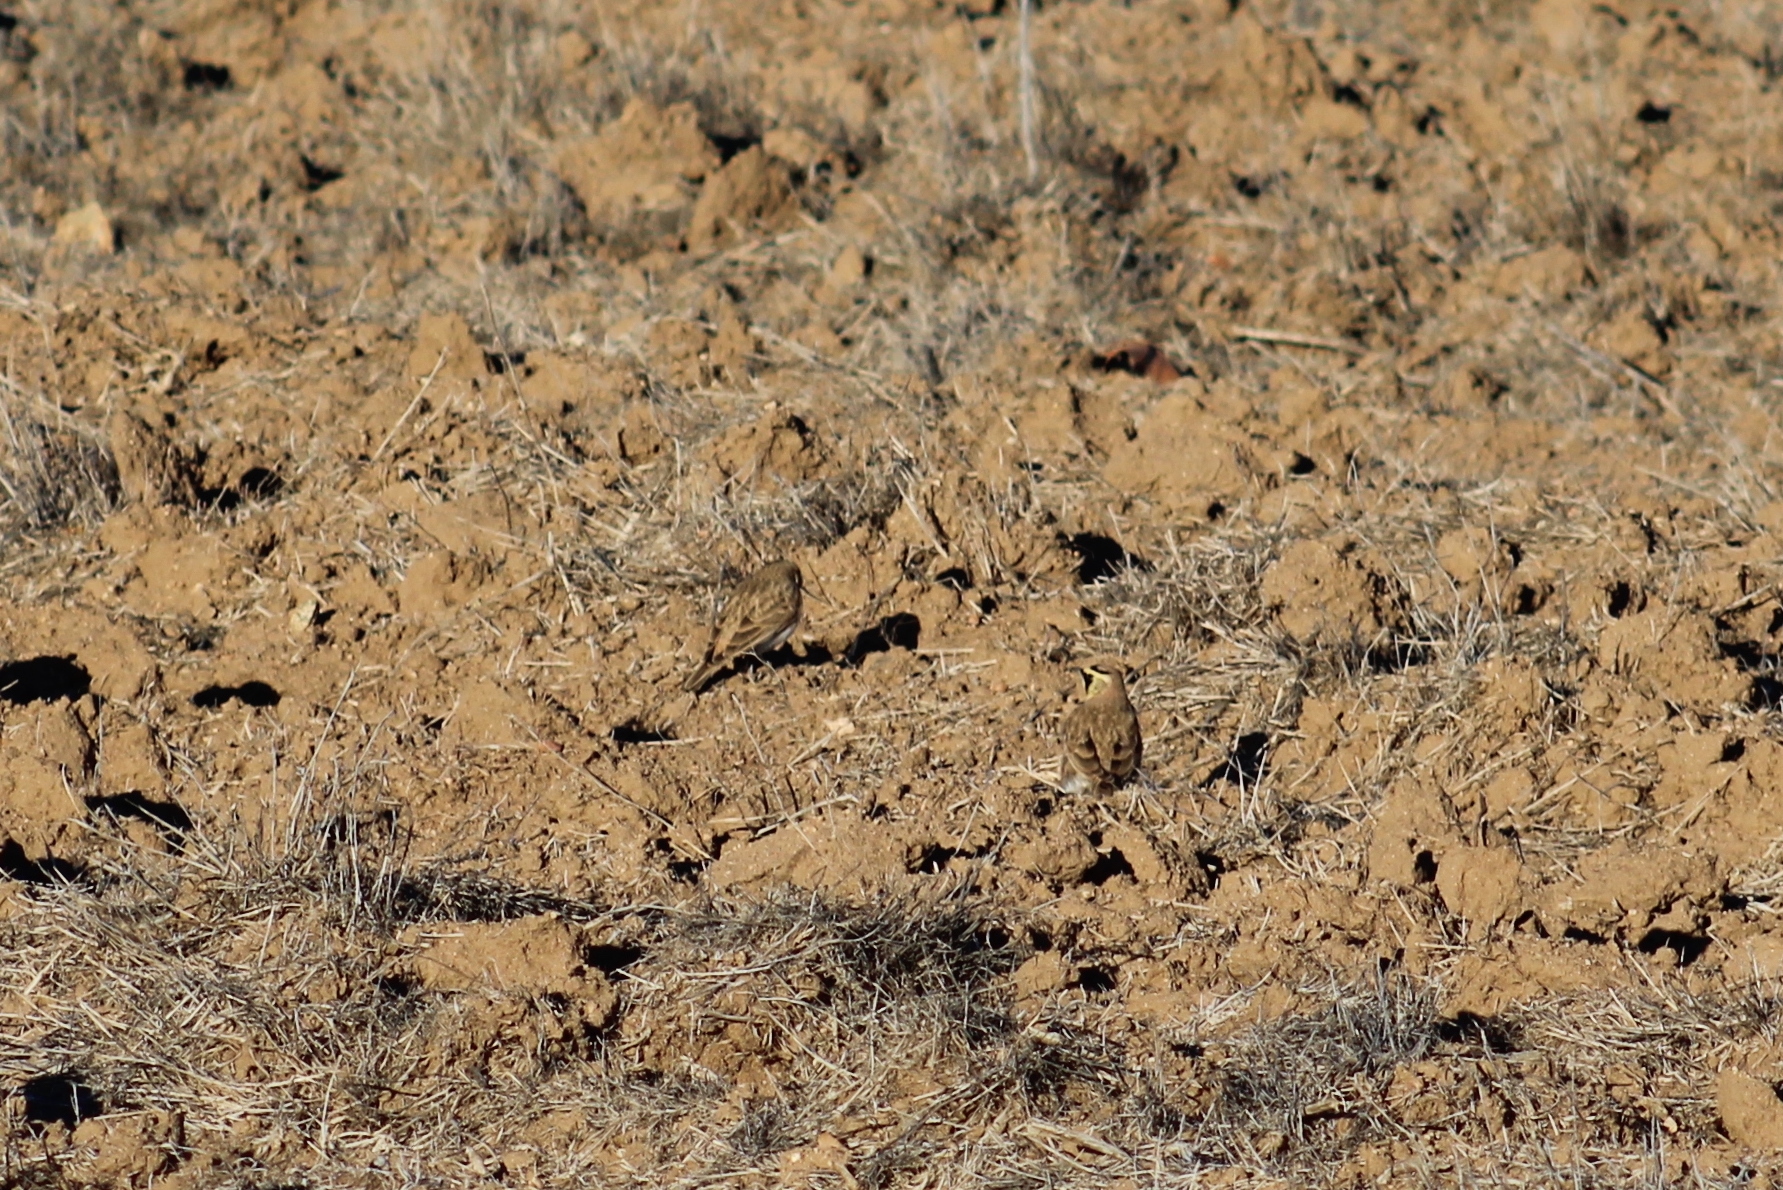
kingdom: Animalia
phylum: Chordata
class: Aves
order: Passeriformes
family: Alaudidae
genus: Eremophila
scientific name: Eremophila alpestris
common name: Horned lark
